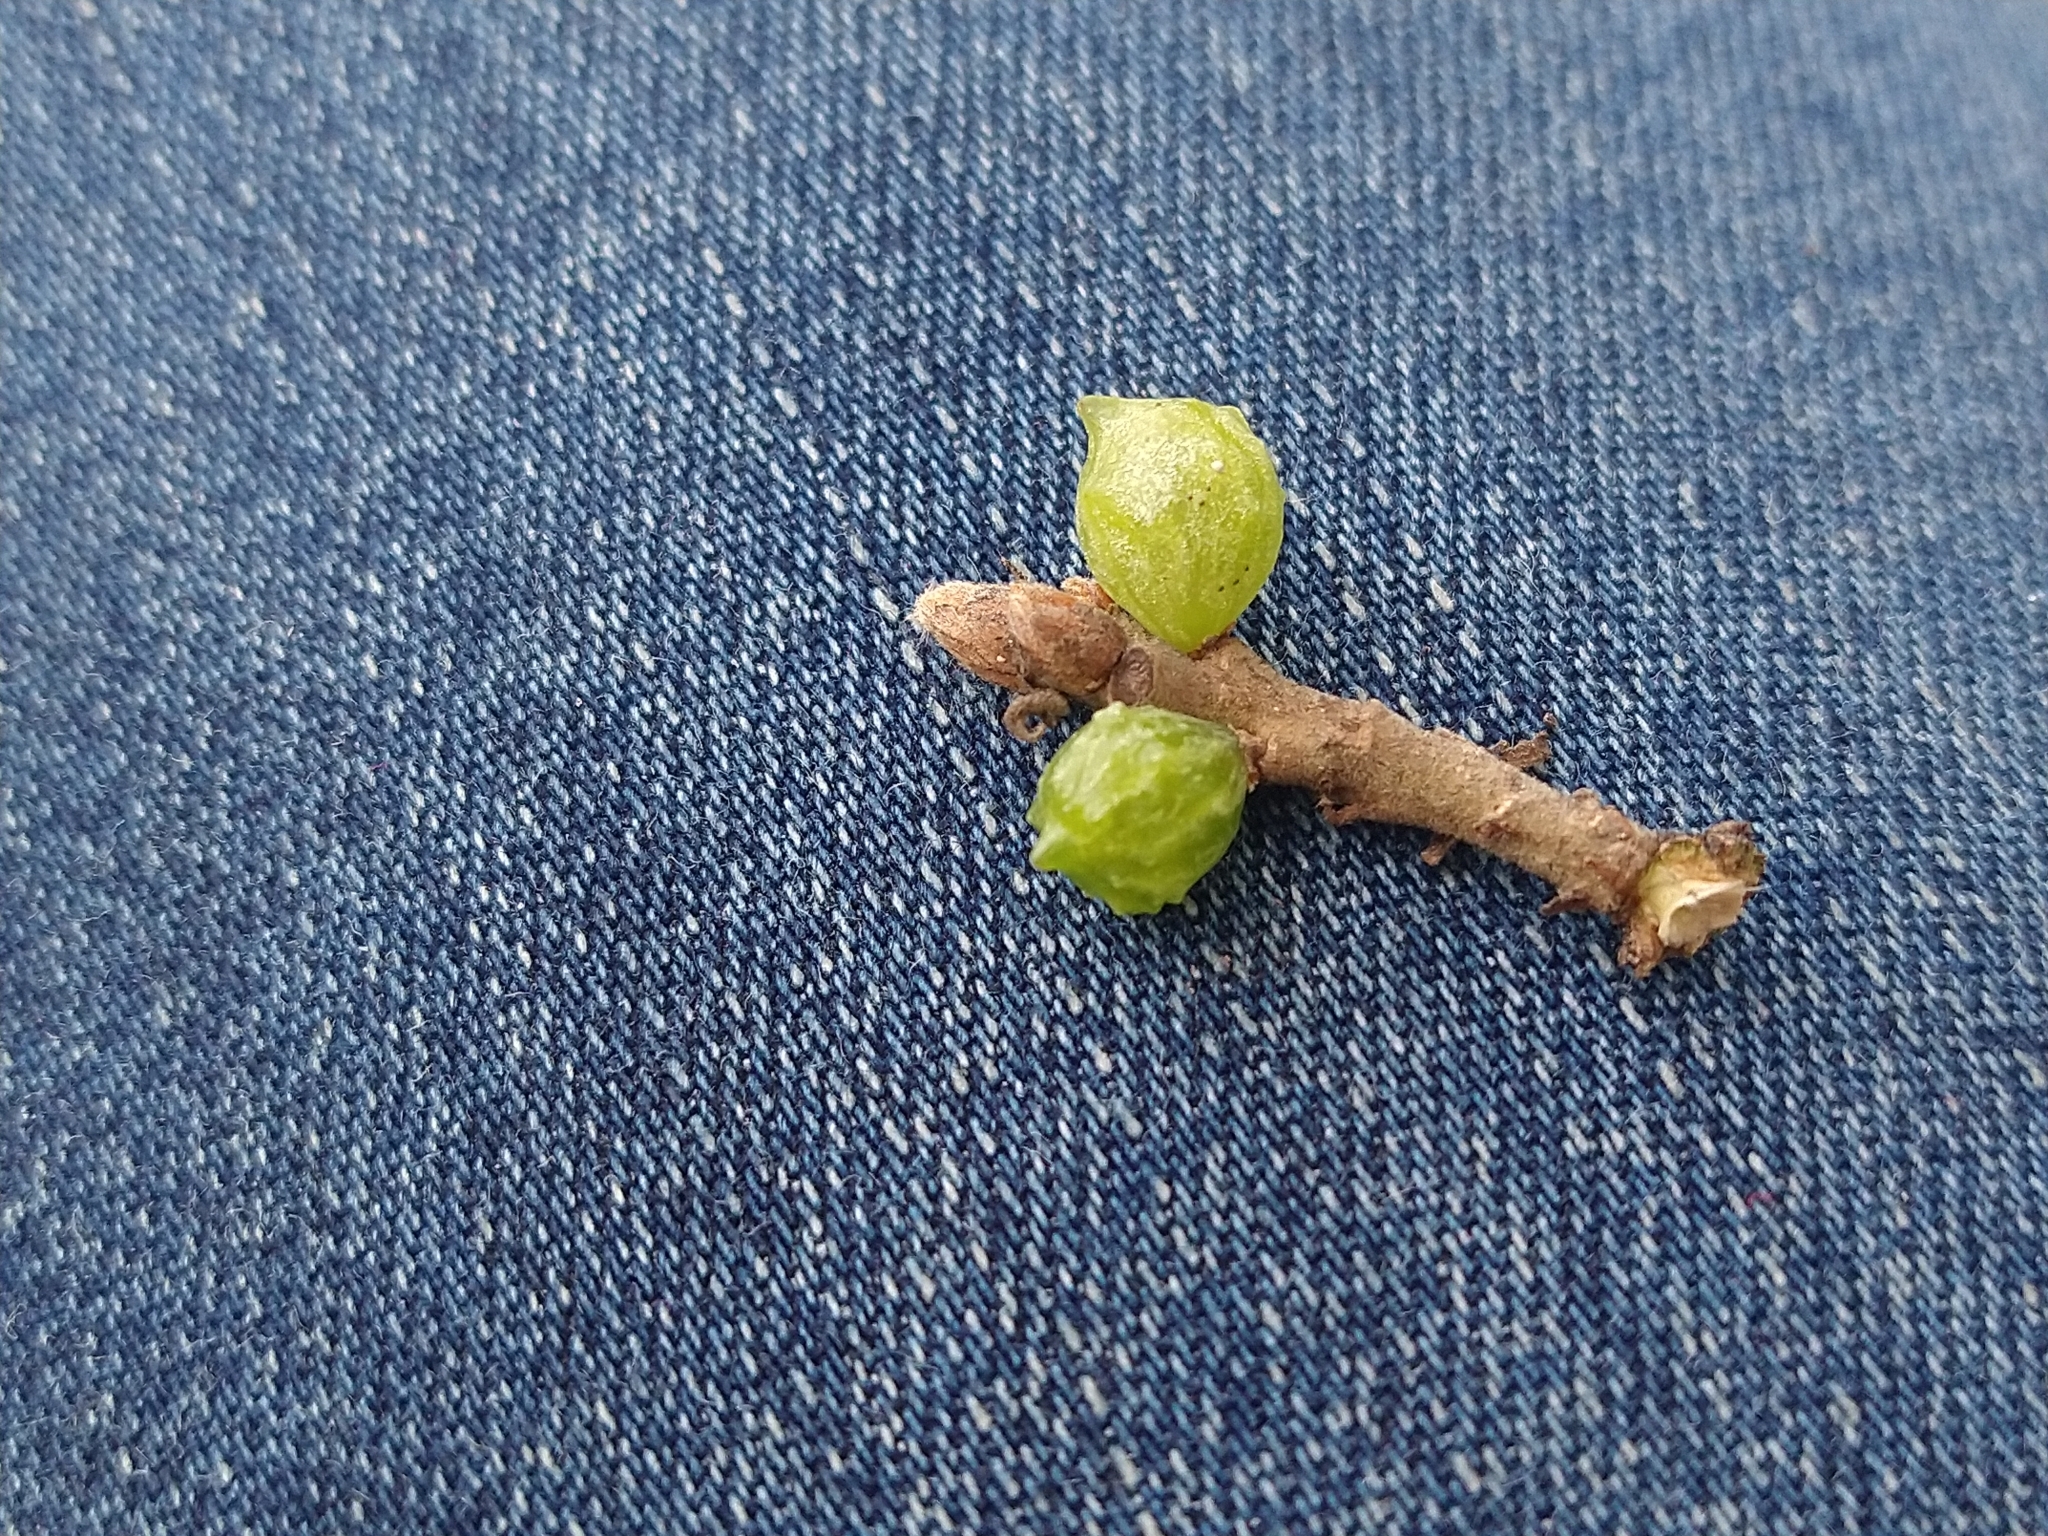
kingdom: Animalia
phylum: Arthropoda
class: Insecta
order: Hymenoptera
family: Cynipidae
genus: Cynips
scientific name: Cynips douglasi
